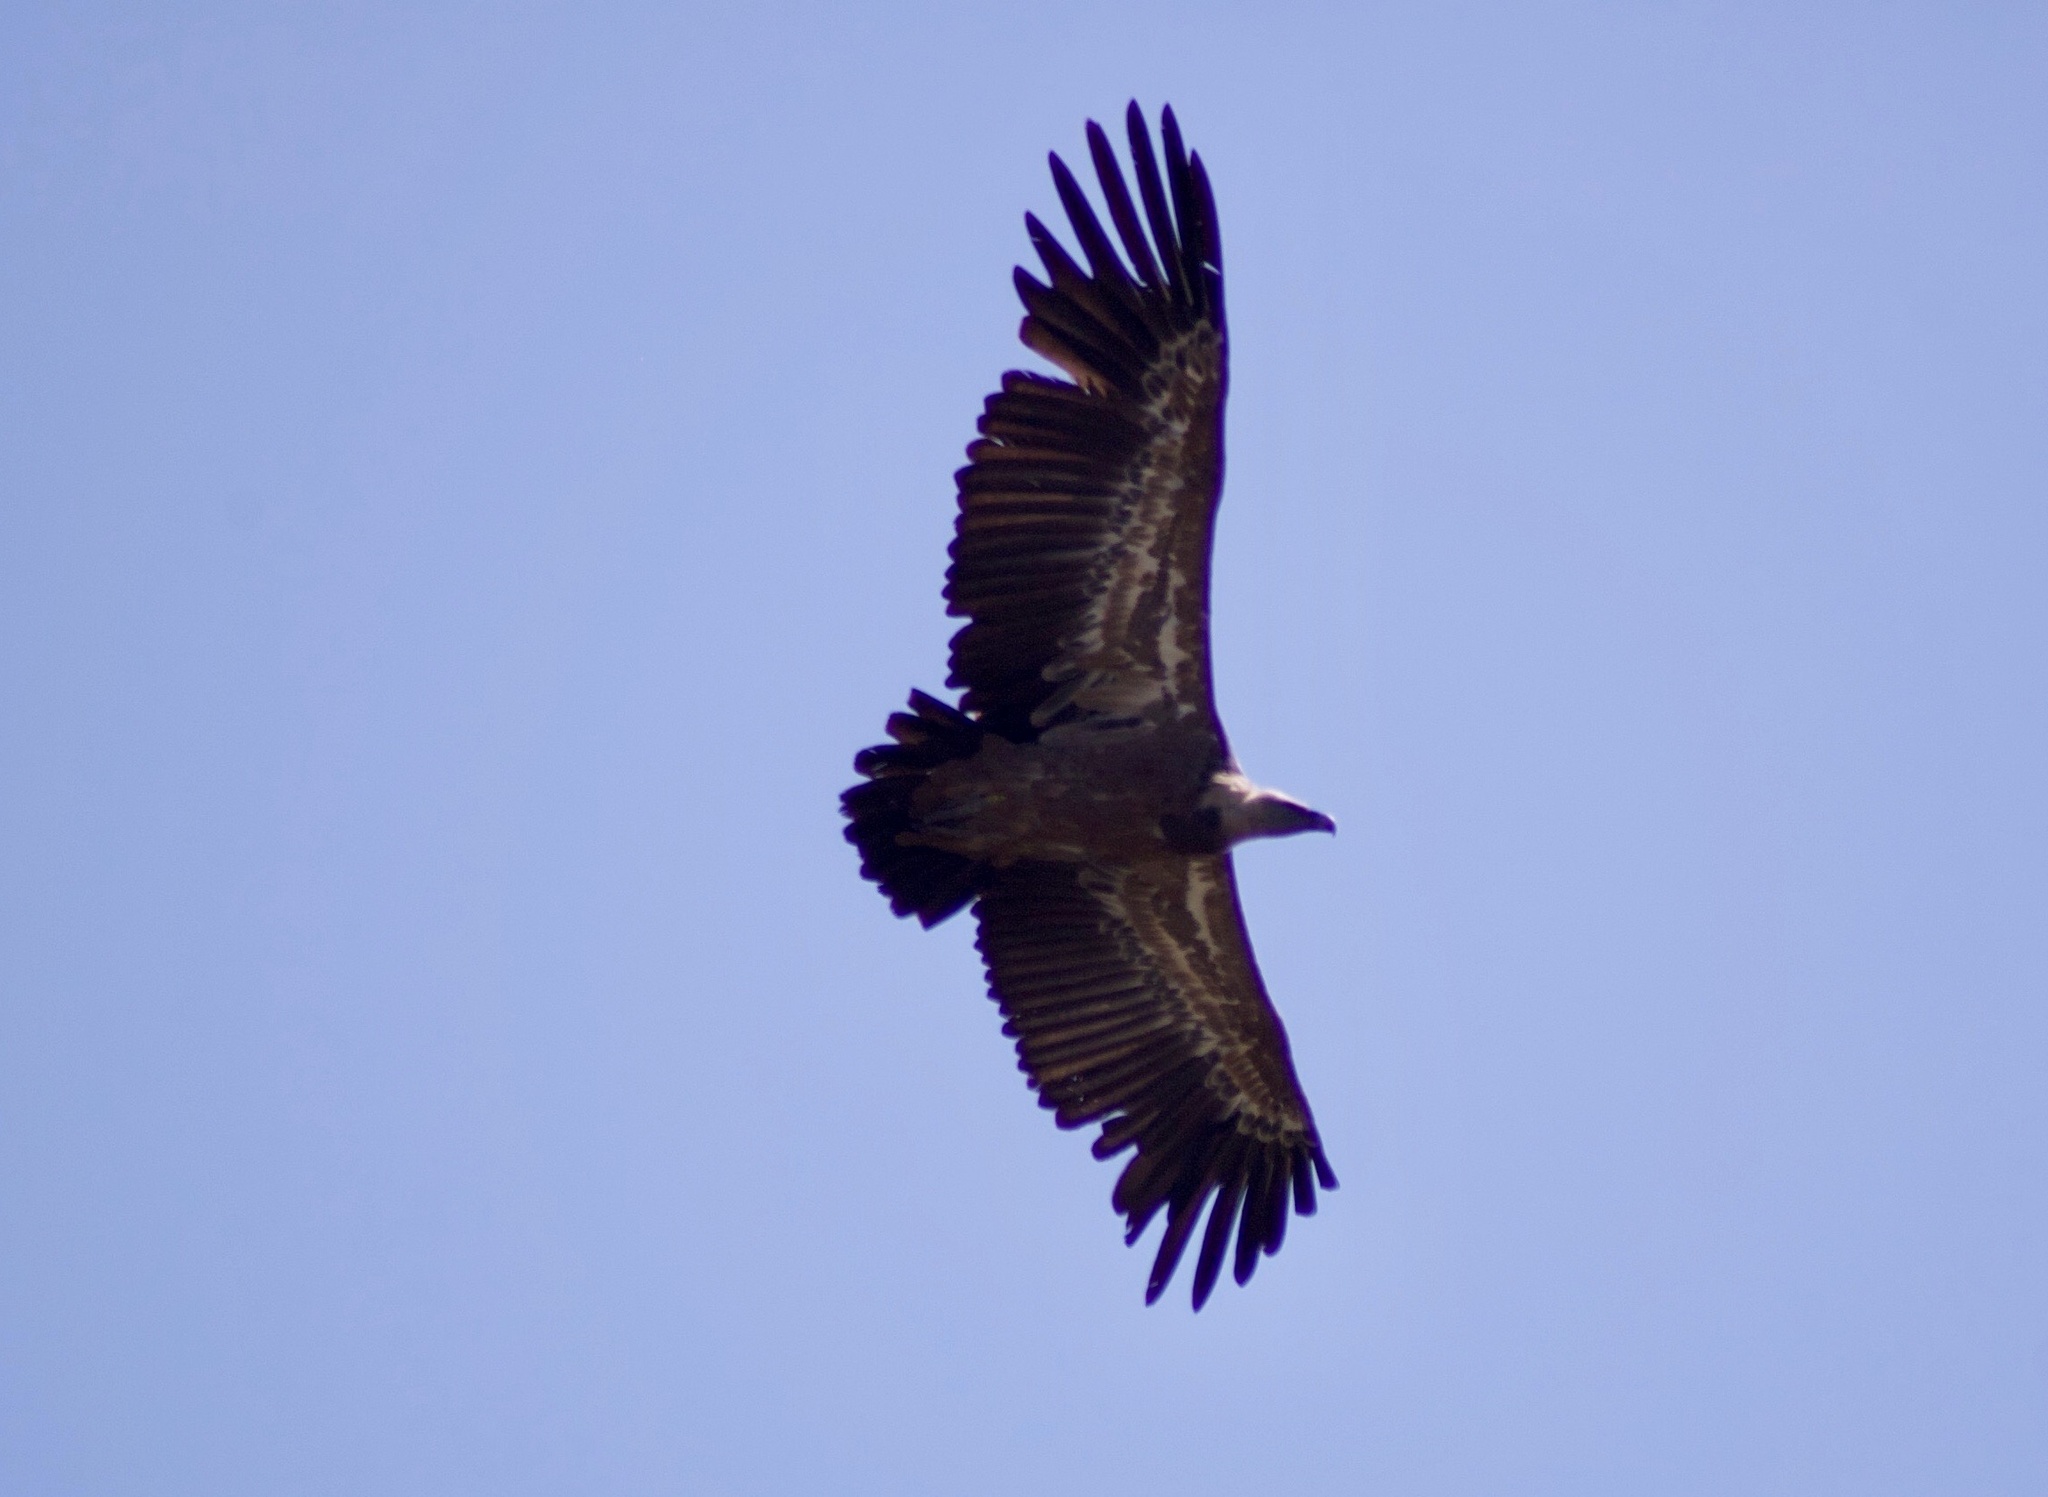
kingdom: Animalia
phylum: Chordata
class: Aves
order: Accipitriformes
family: Accipitridae
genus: Gyps
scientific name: Gyps fulvus
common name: Griffon vulture
